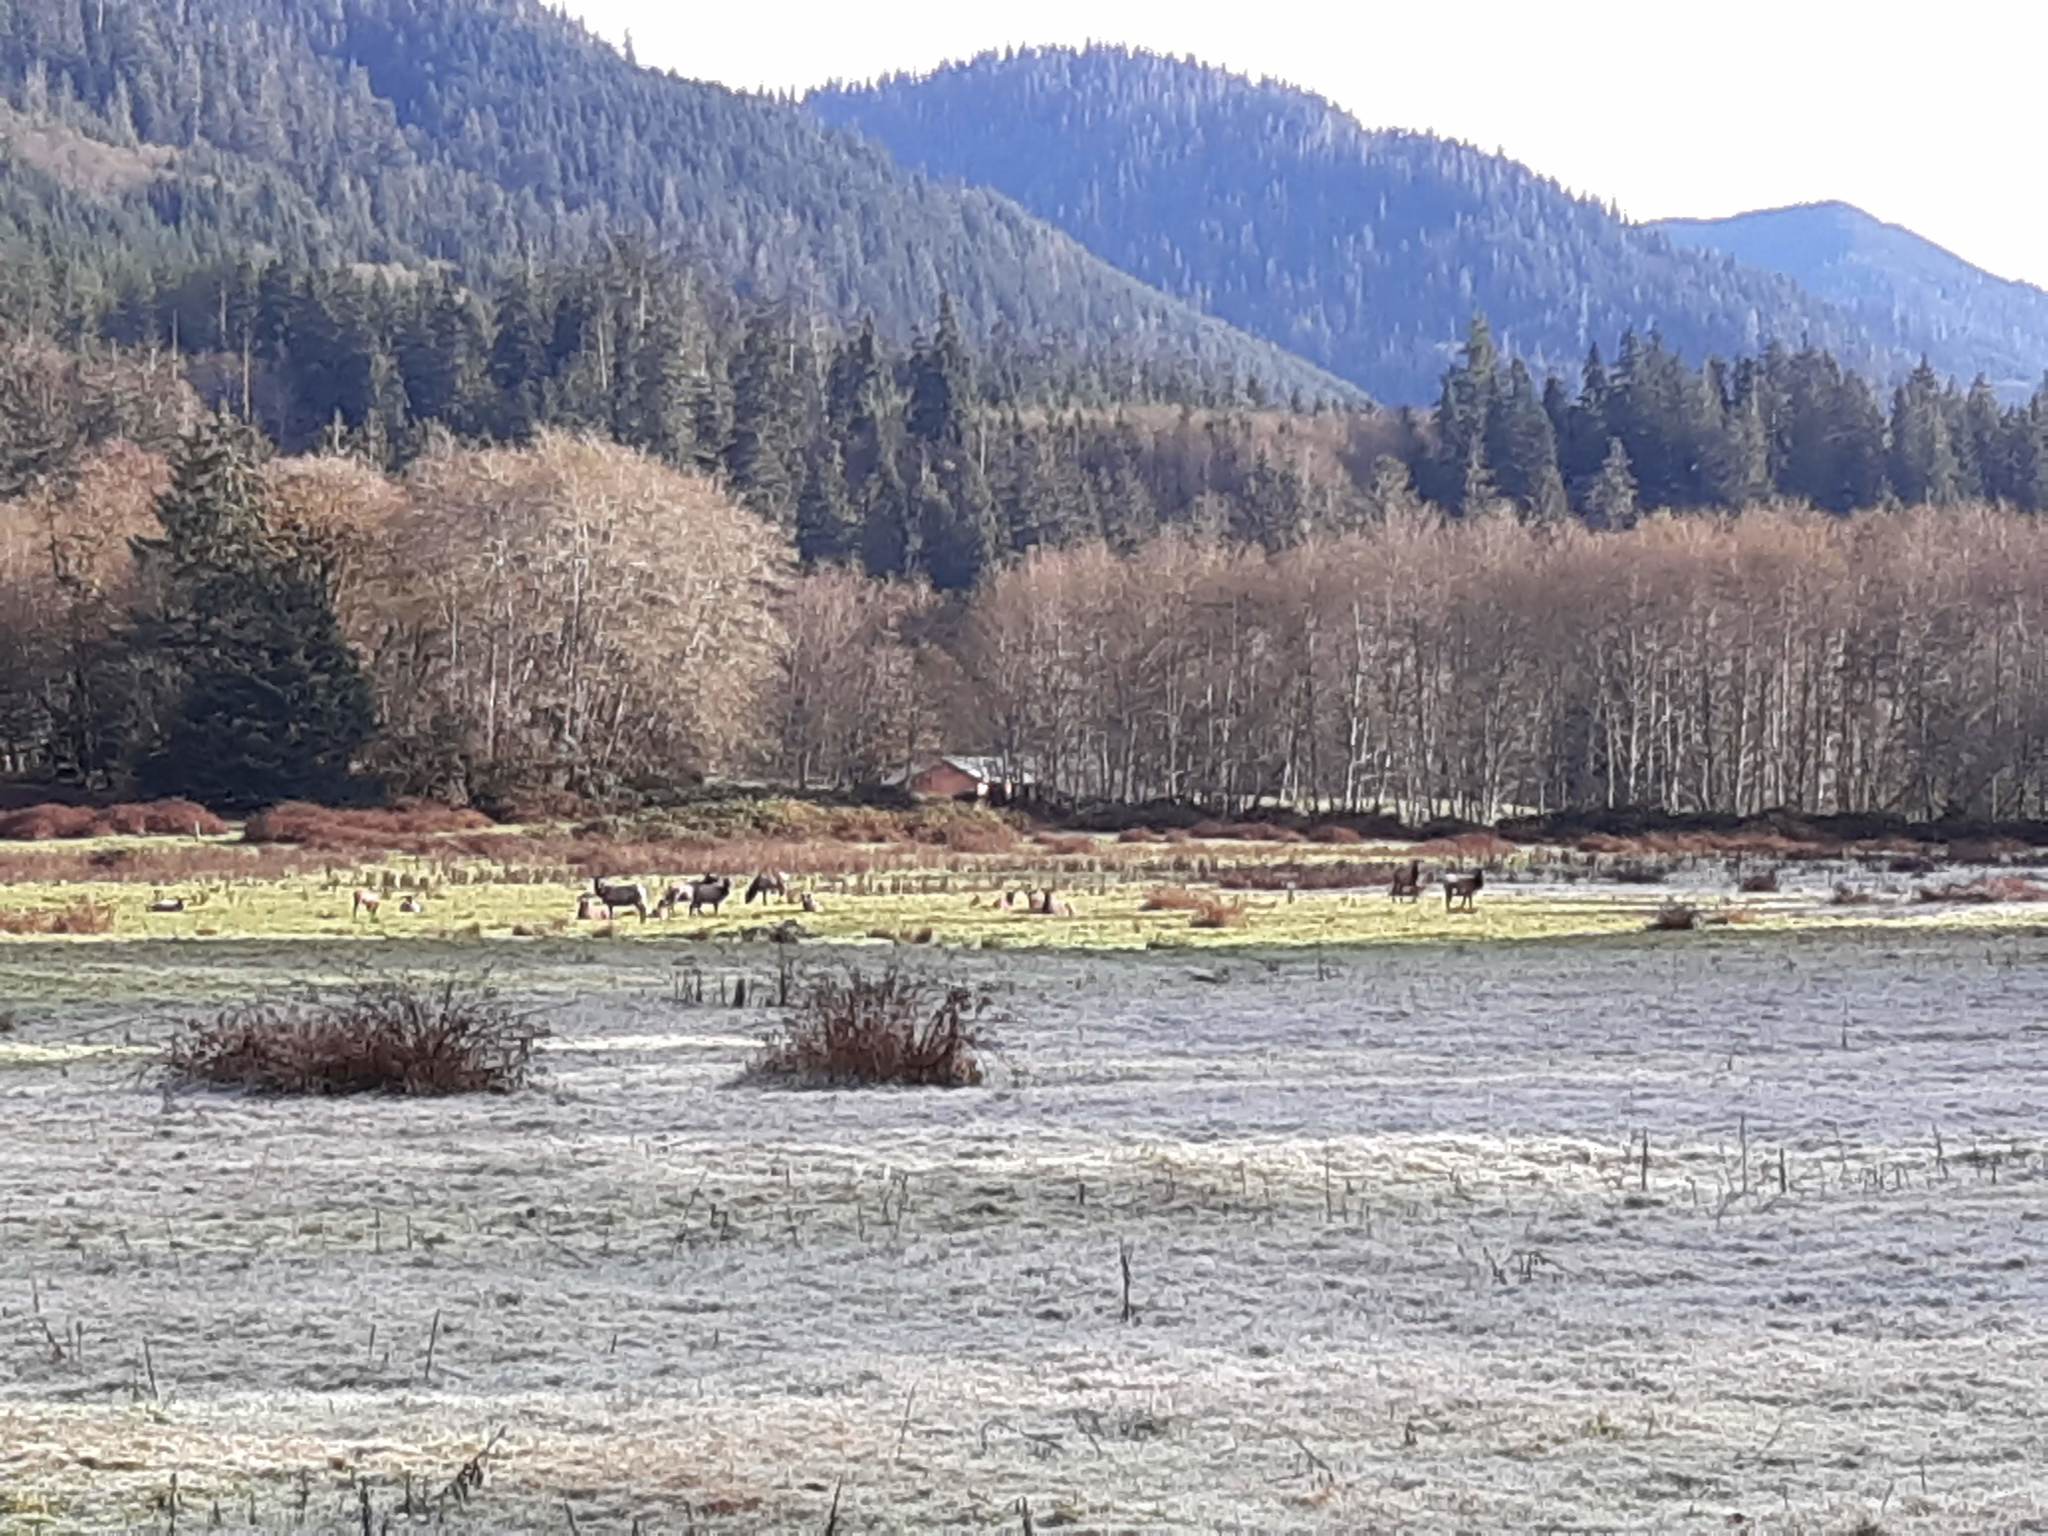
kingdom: Animalia
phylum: Chordata
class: Mammalia
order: Artiodactyla
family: Cervidae
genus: Cervus
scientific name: Cervus elaphus
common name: Red deer
